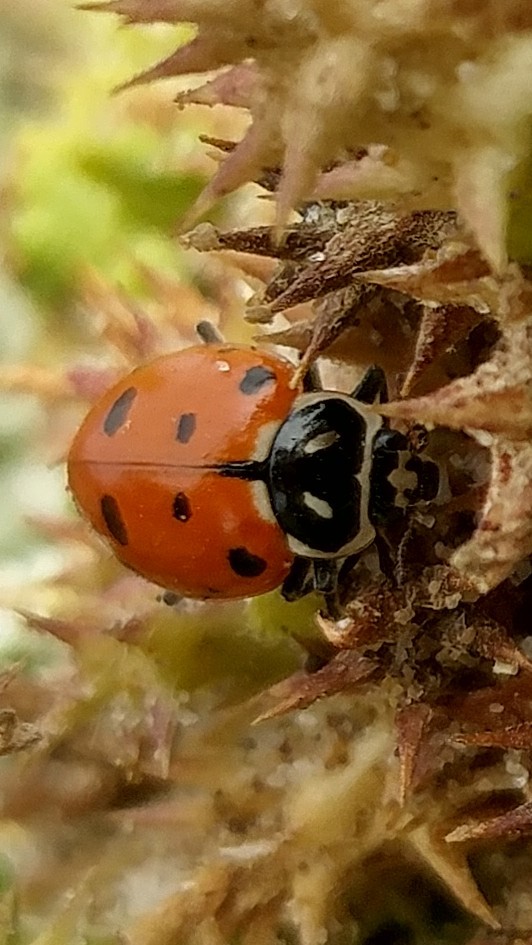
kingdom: Animalia
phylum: Arthropoda
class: Insecta
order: Coleoptera
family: Coccinellidae
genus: Hippodamia
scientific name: Hippodamia convergens
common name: Convergent lady beetle
